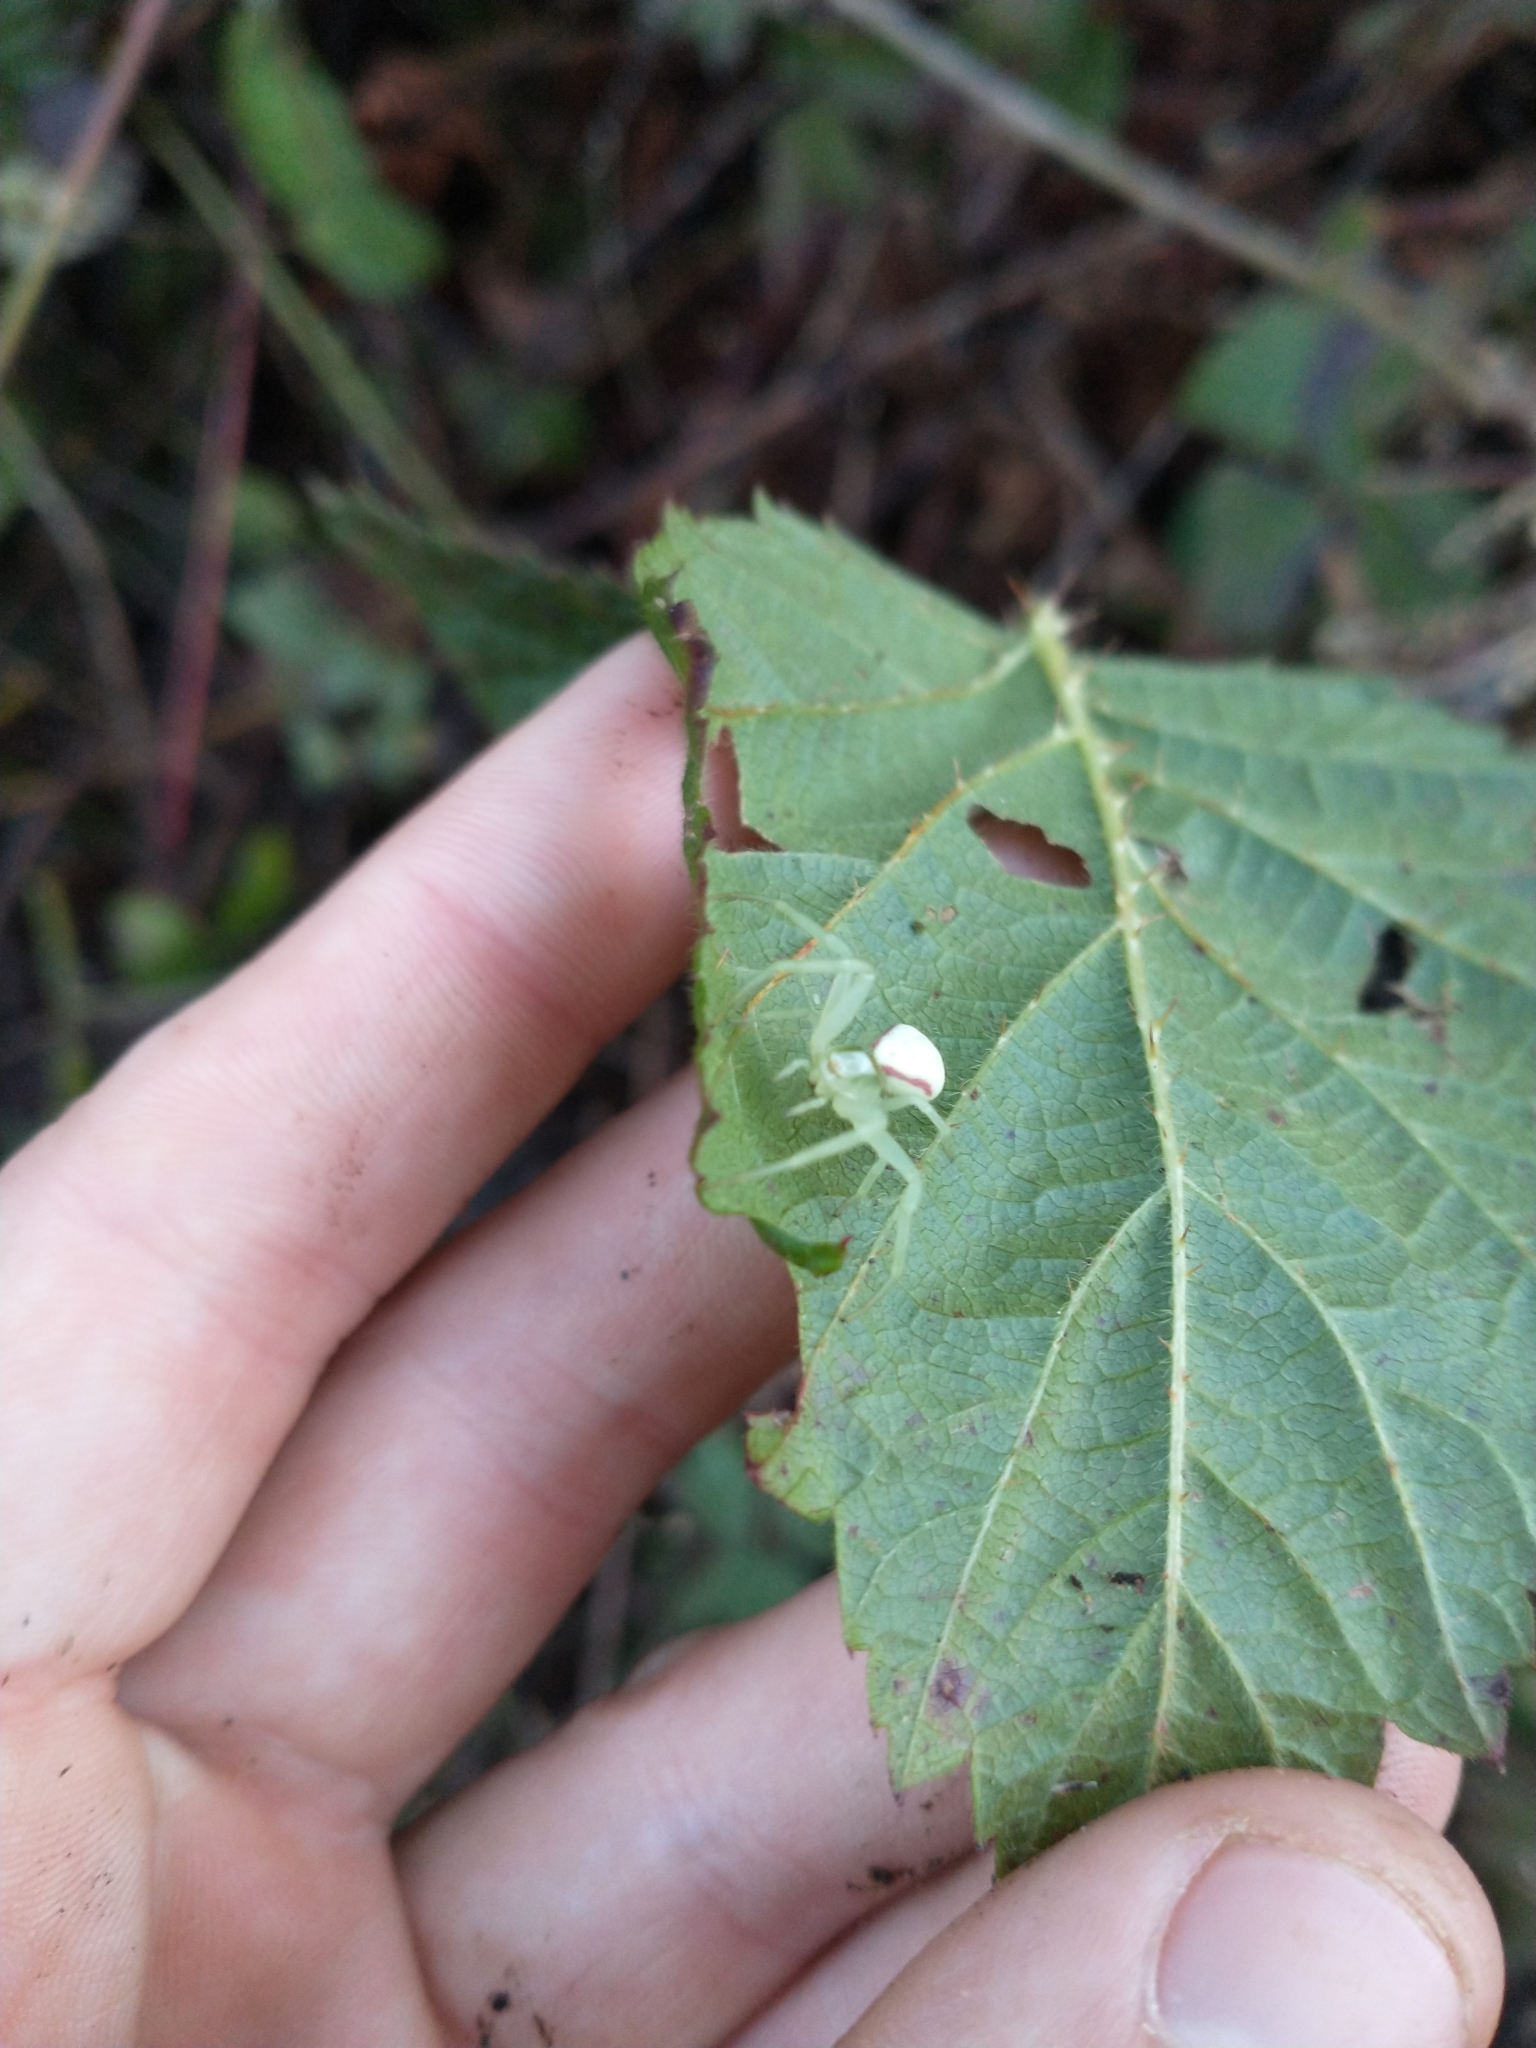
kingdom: Animalia
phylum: Arthropoda
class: Arachnida
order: Araneae
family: Thomisidae
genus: Misumena
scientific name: Misumena vatia
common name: Goldenrod crab spider
